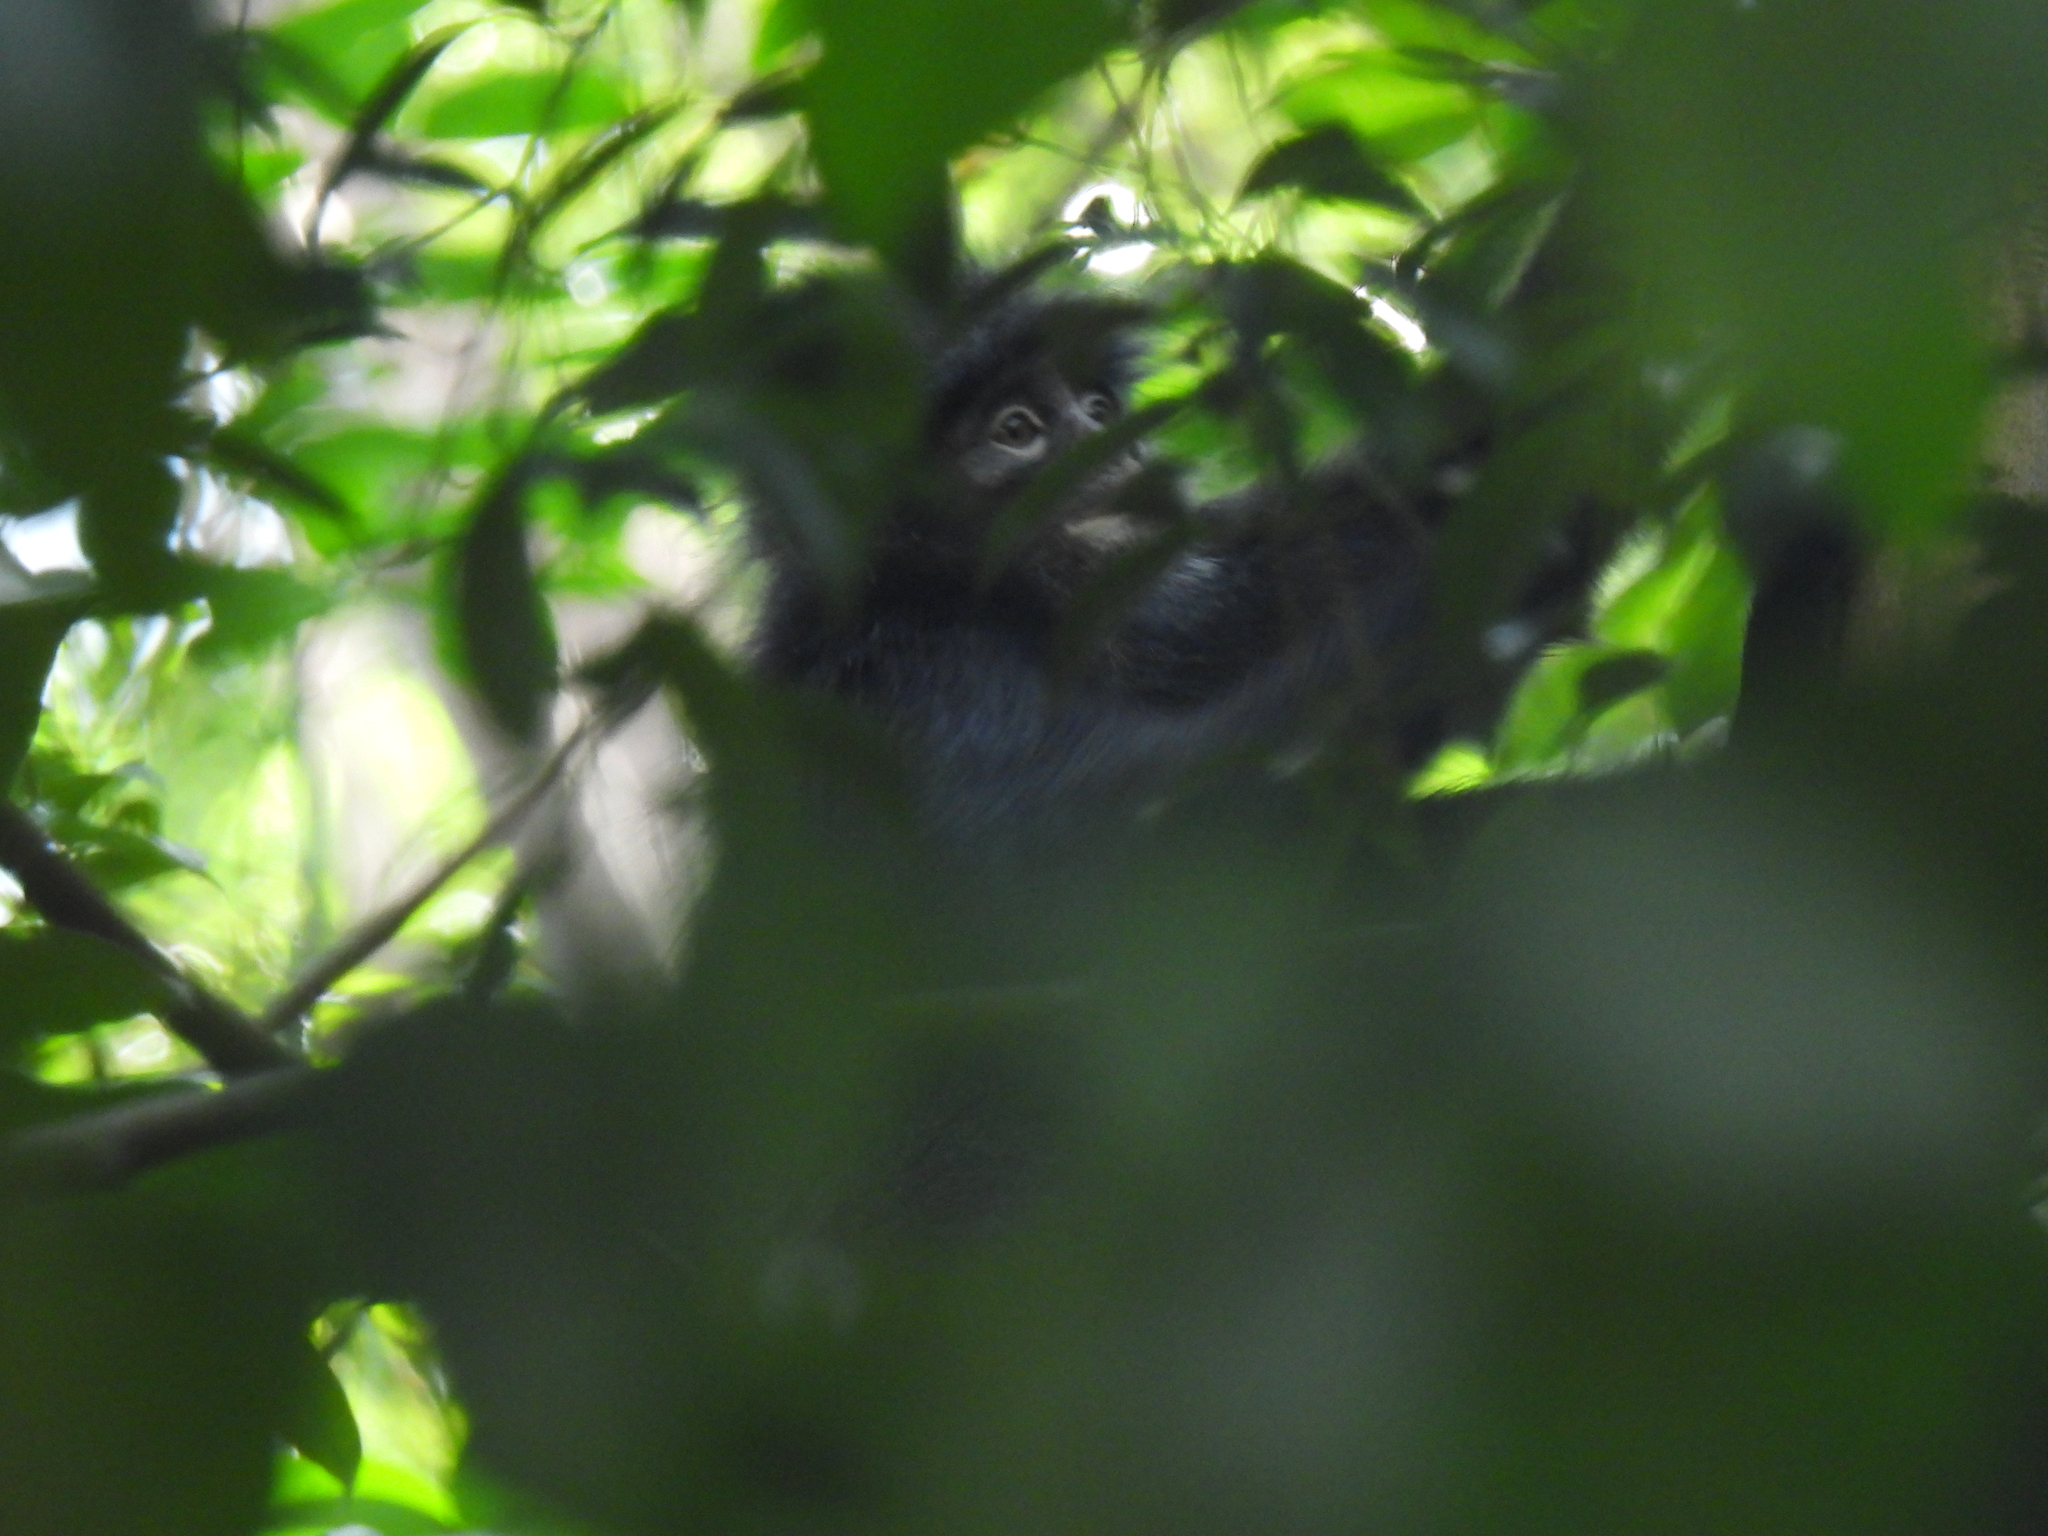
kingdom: Animalia
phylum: Chordata
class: Mammalia
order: Primates
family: Cercopithecidae
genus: Presbytis
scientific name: Presbytis femoralis
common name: Banded surili
